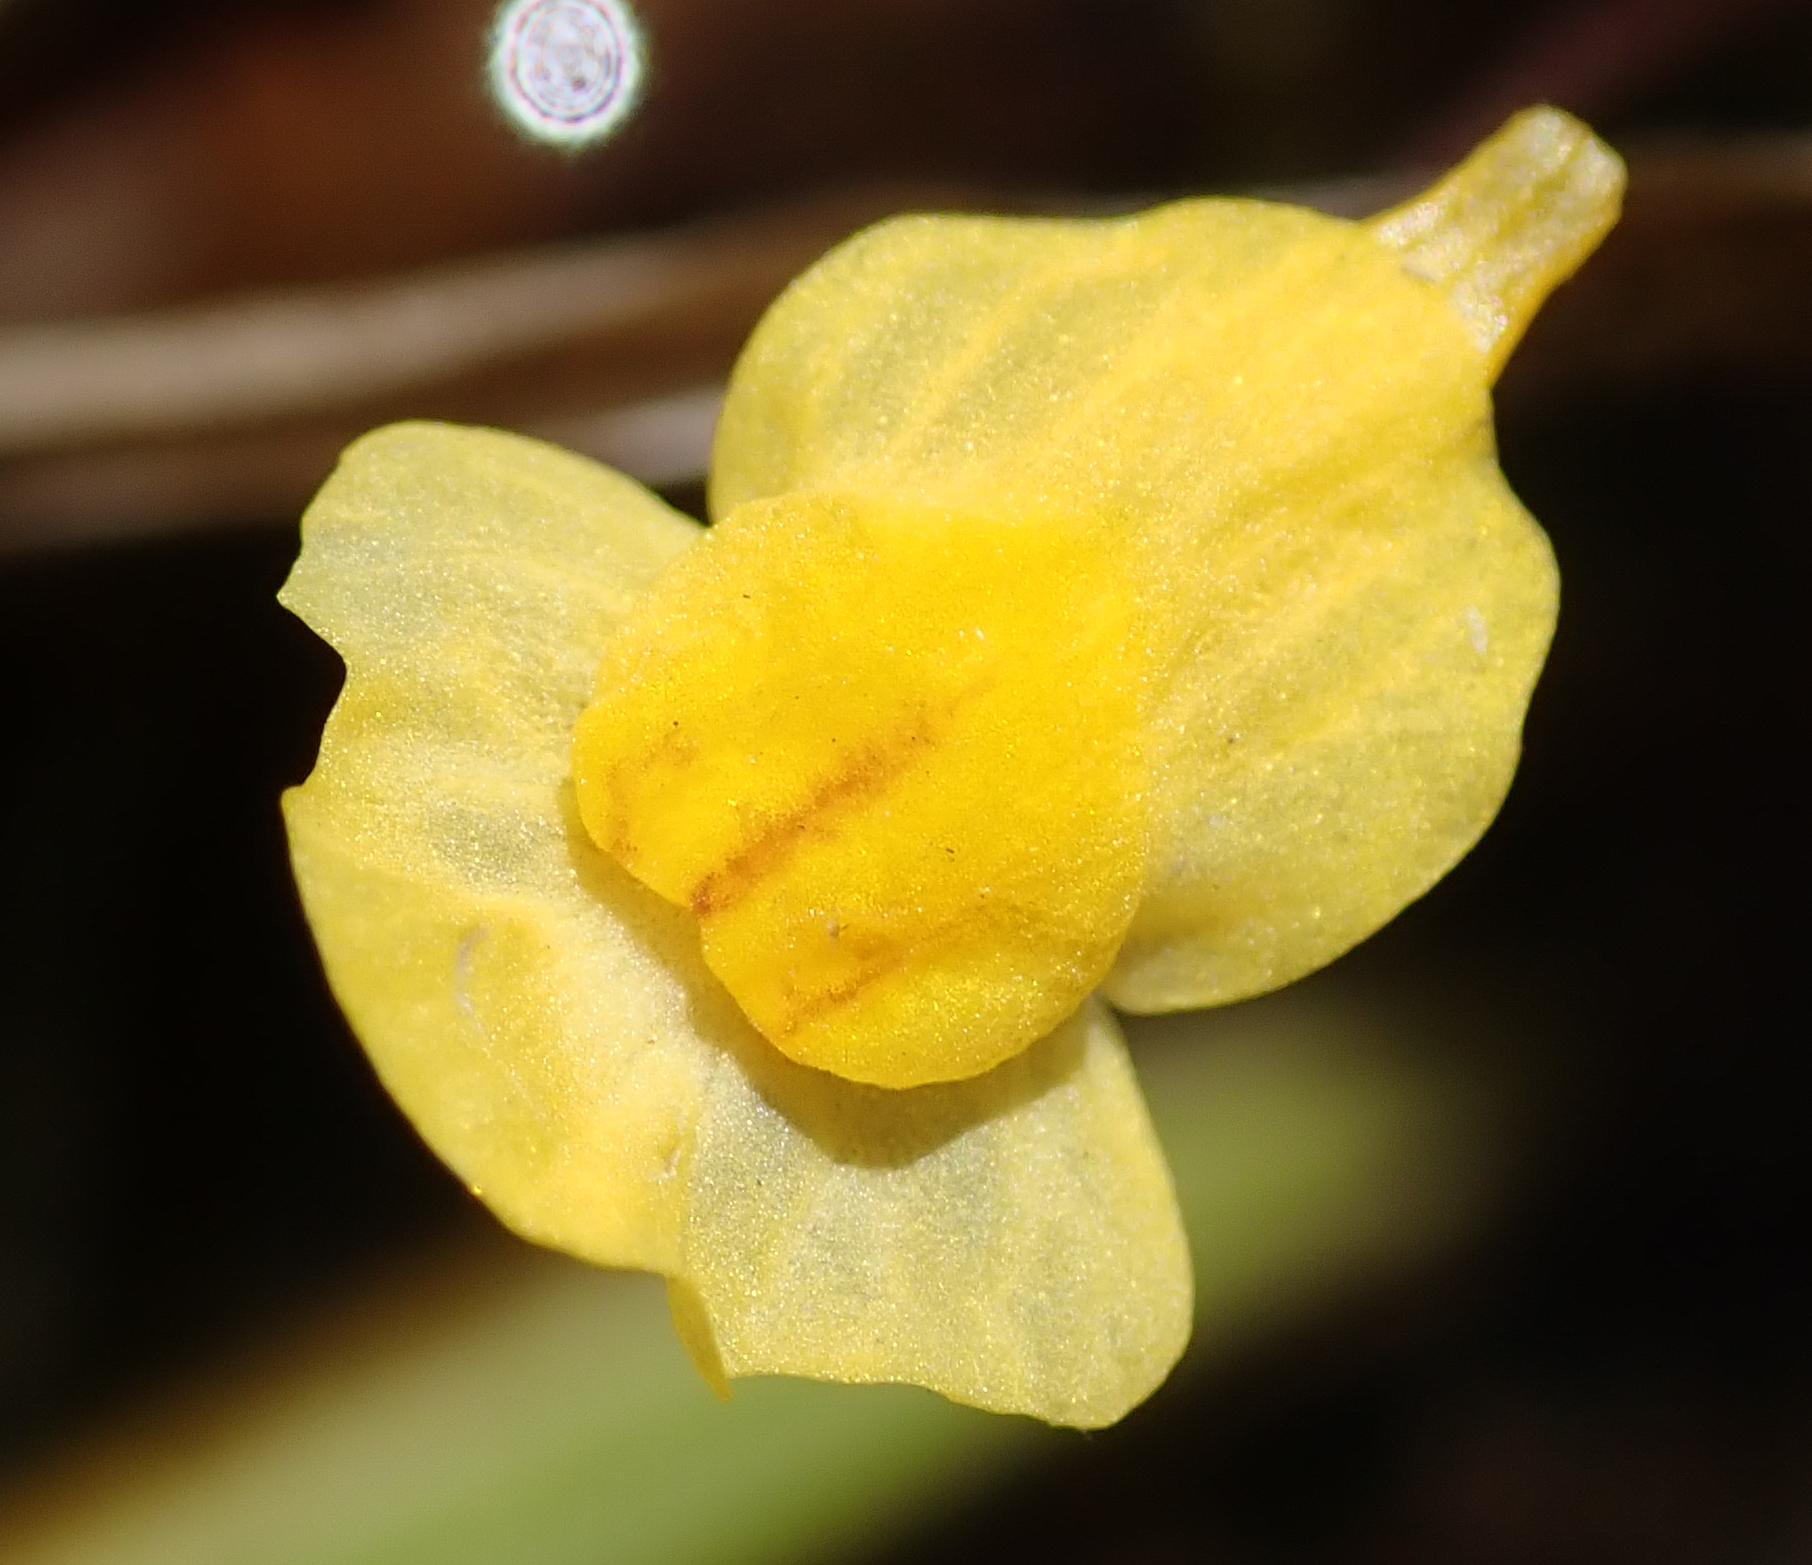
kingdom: Plantae
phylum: Tracheophyta
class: Magnoliopsida
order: Lamiales
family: Lentibulariaceae
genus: Utricularia
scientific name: Utricularia gibba
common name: Humped bladderwort
